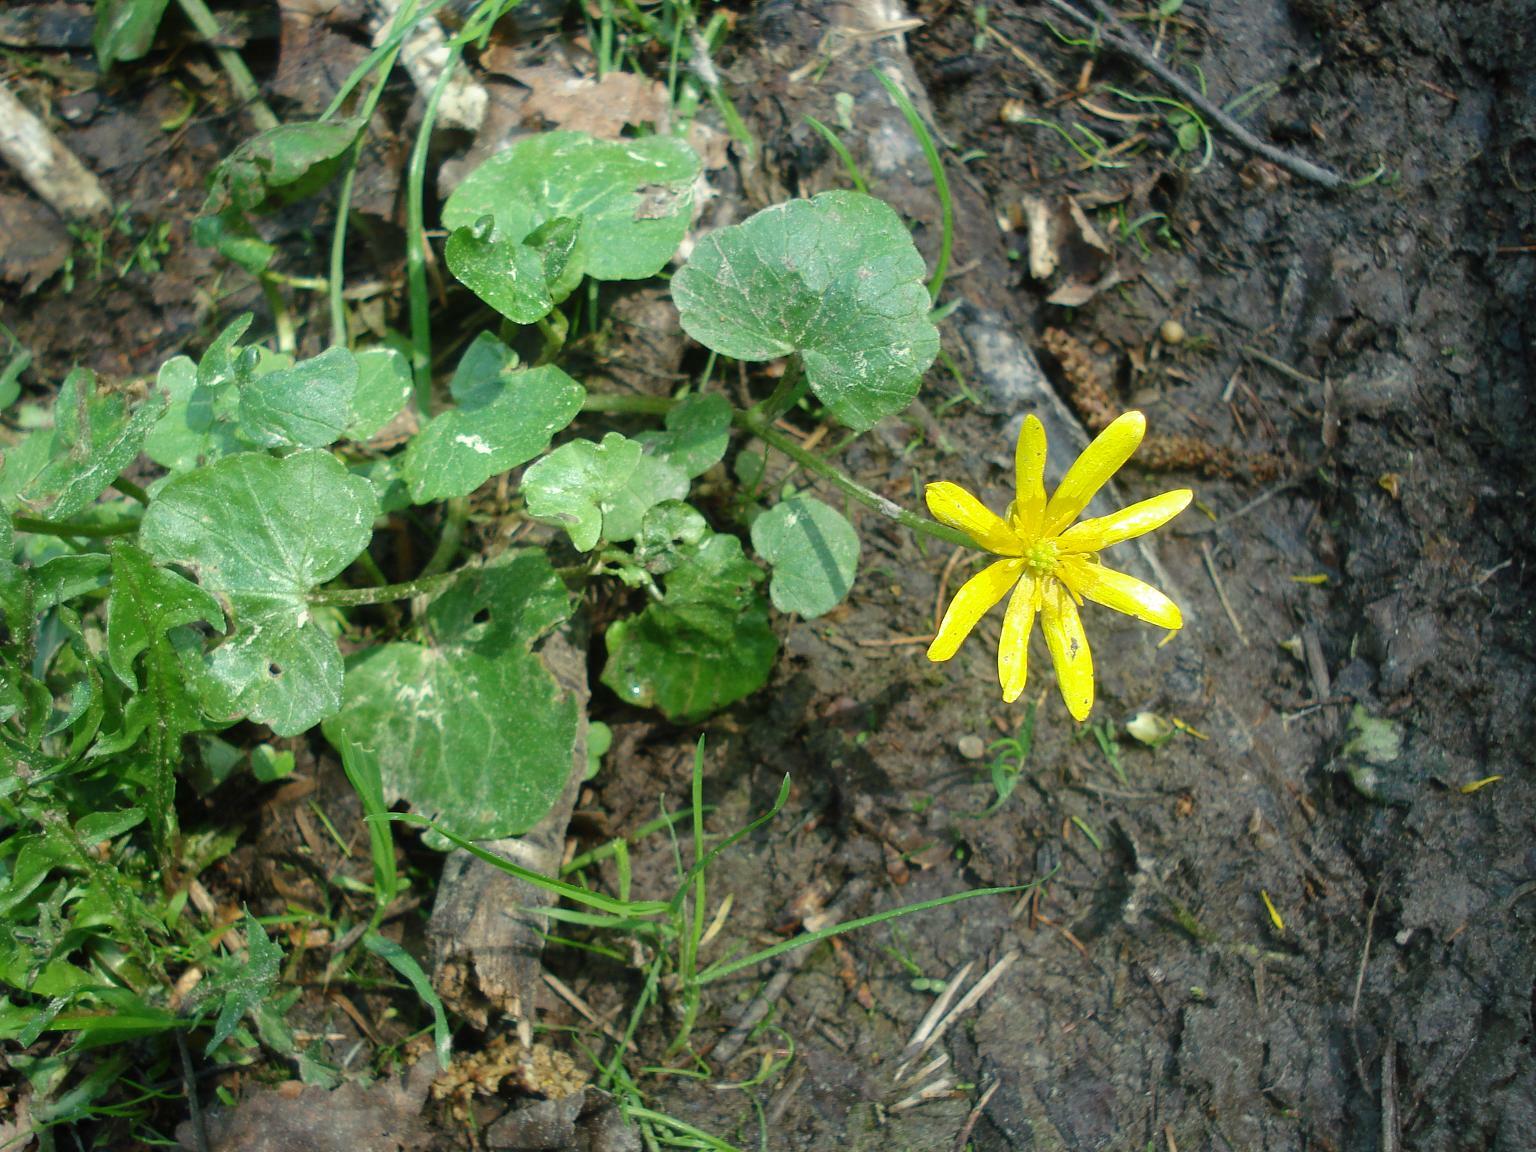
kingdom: Plantae
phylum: Tracheophyta
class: Magnoliopsida
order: Ranunculales
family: Ranunculaceae
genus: Ficaria
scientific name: Ficaria verna
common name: Lesser celandine
